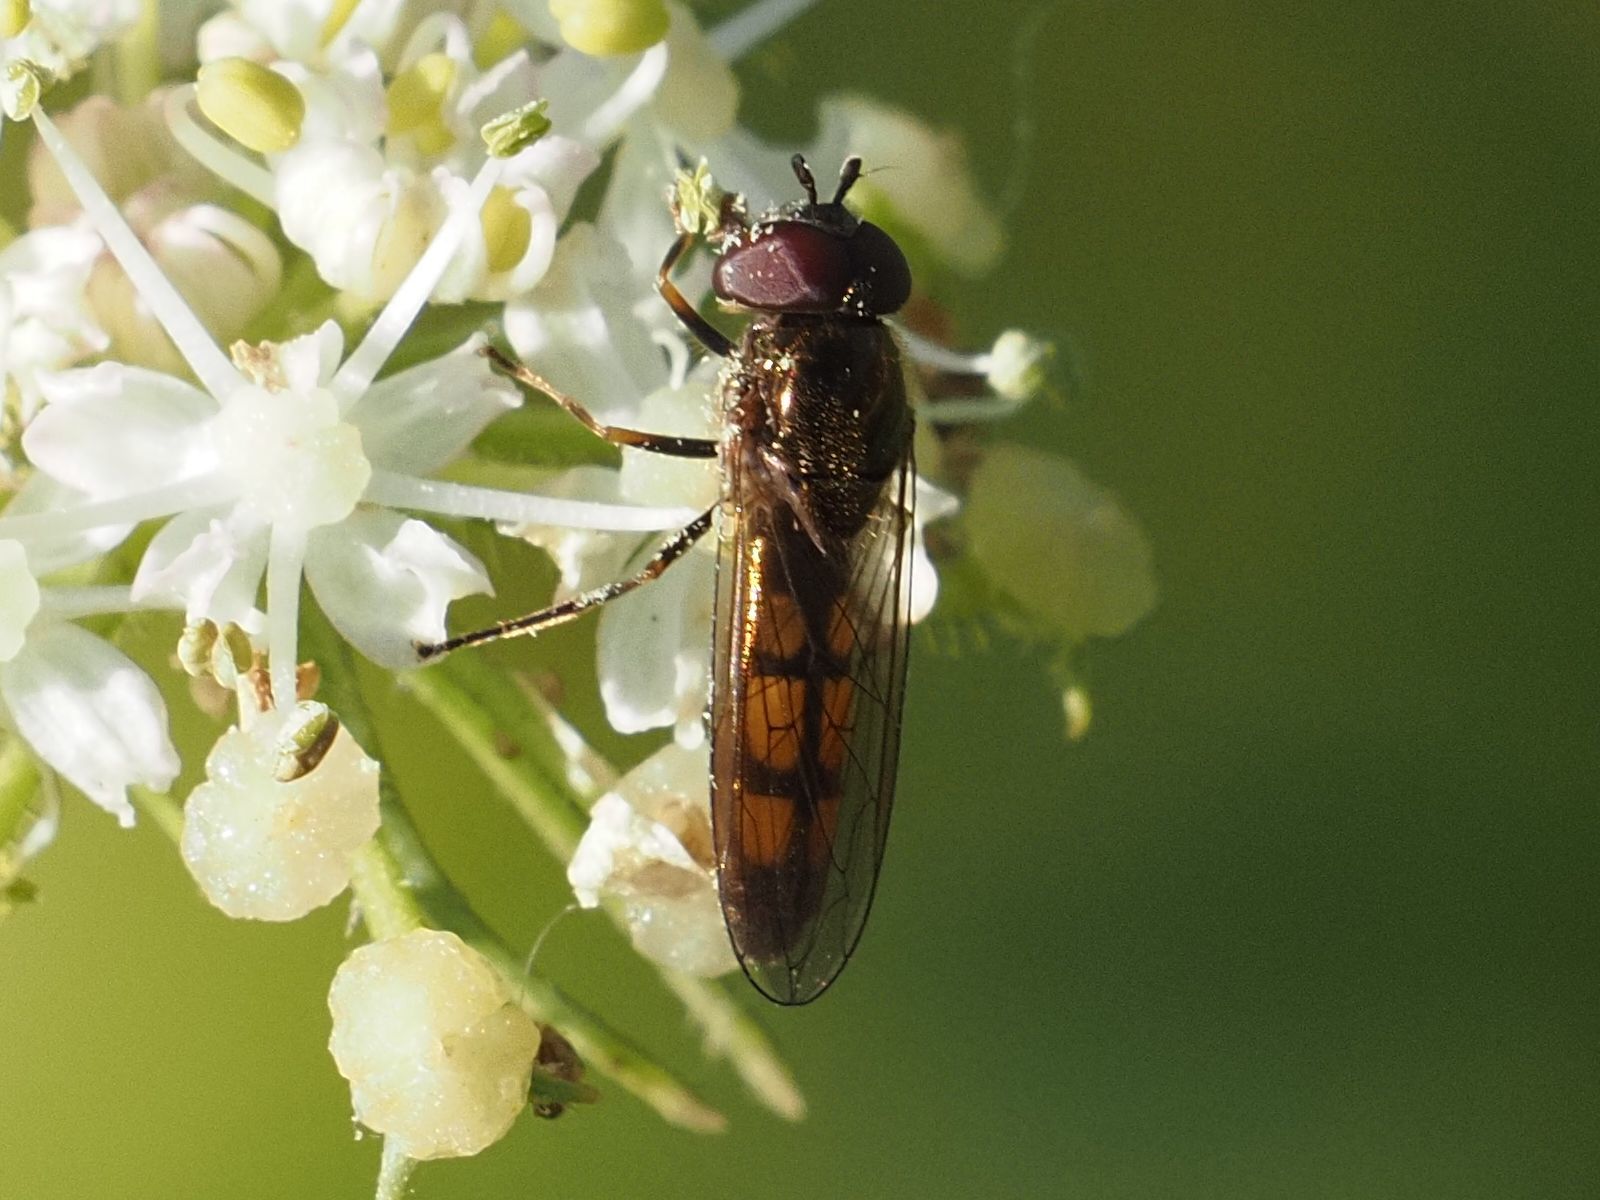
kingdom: Animalia
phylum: Arthropoda
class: Insecta
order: Diptera
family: Syrphidae
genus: Melanostoma
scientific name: Melanostoma mellina
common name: Hover fly
